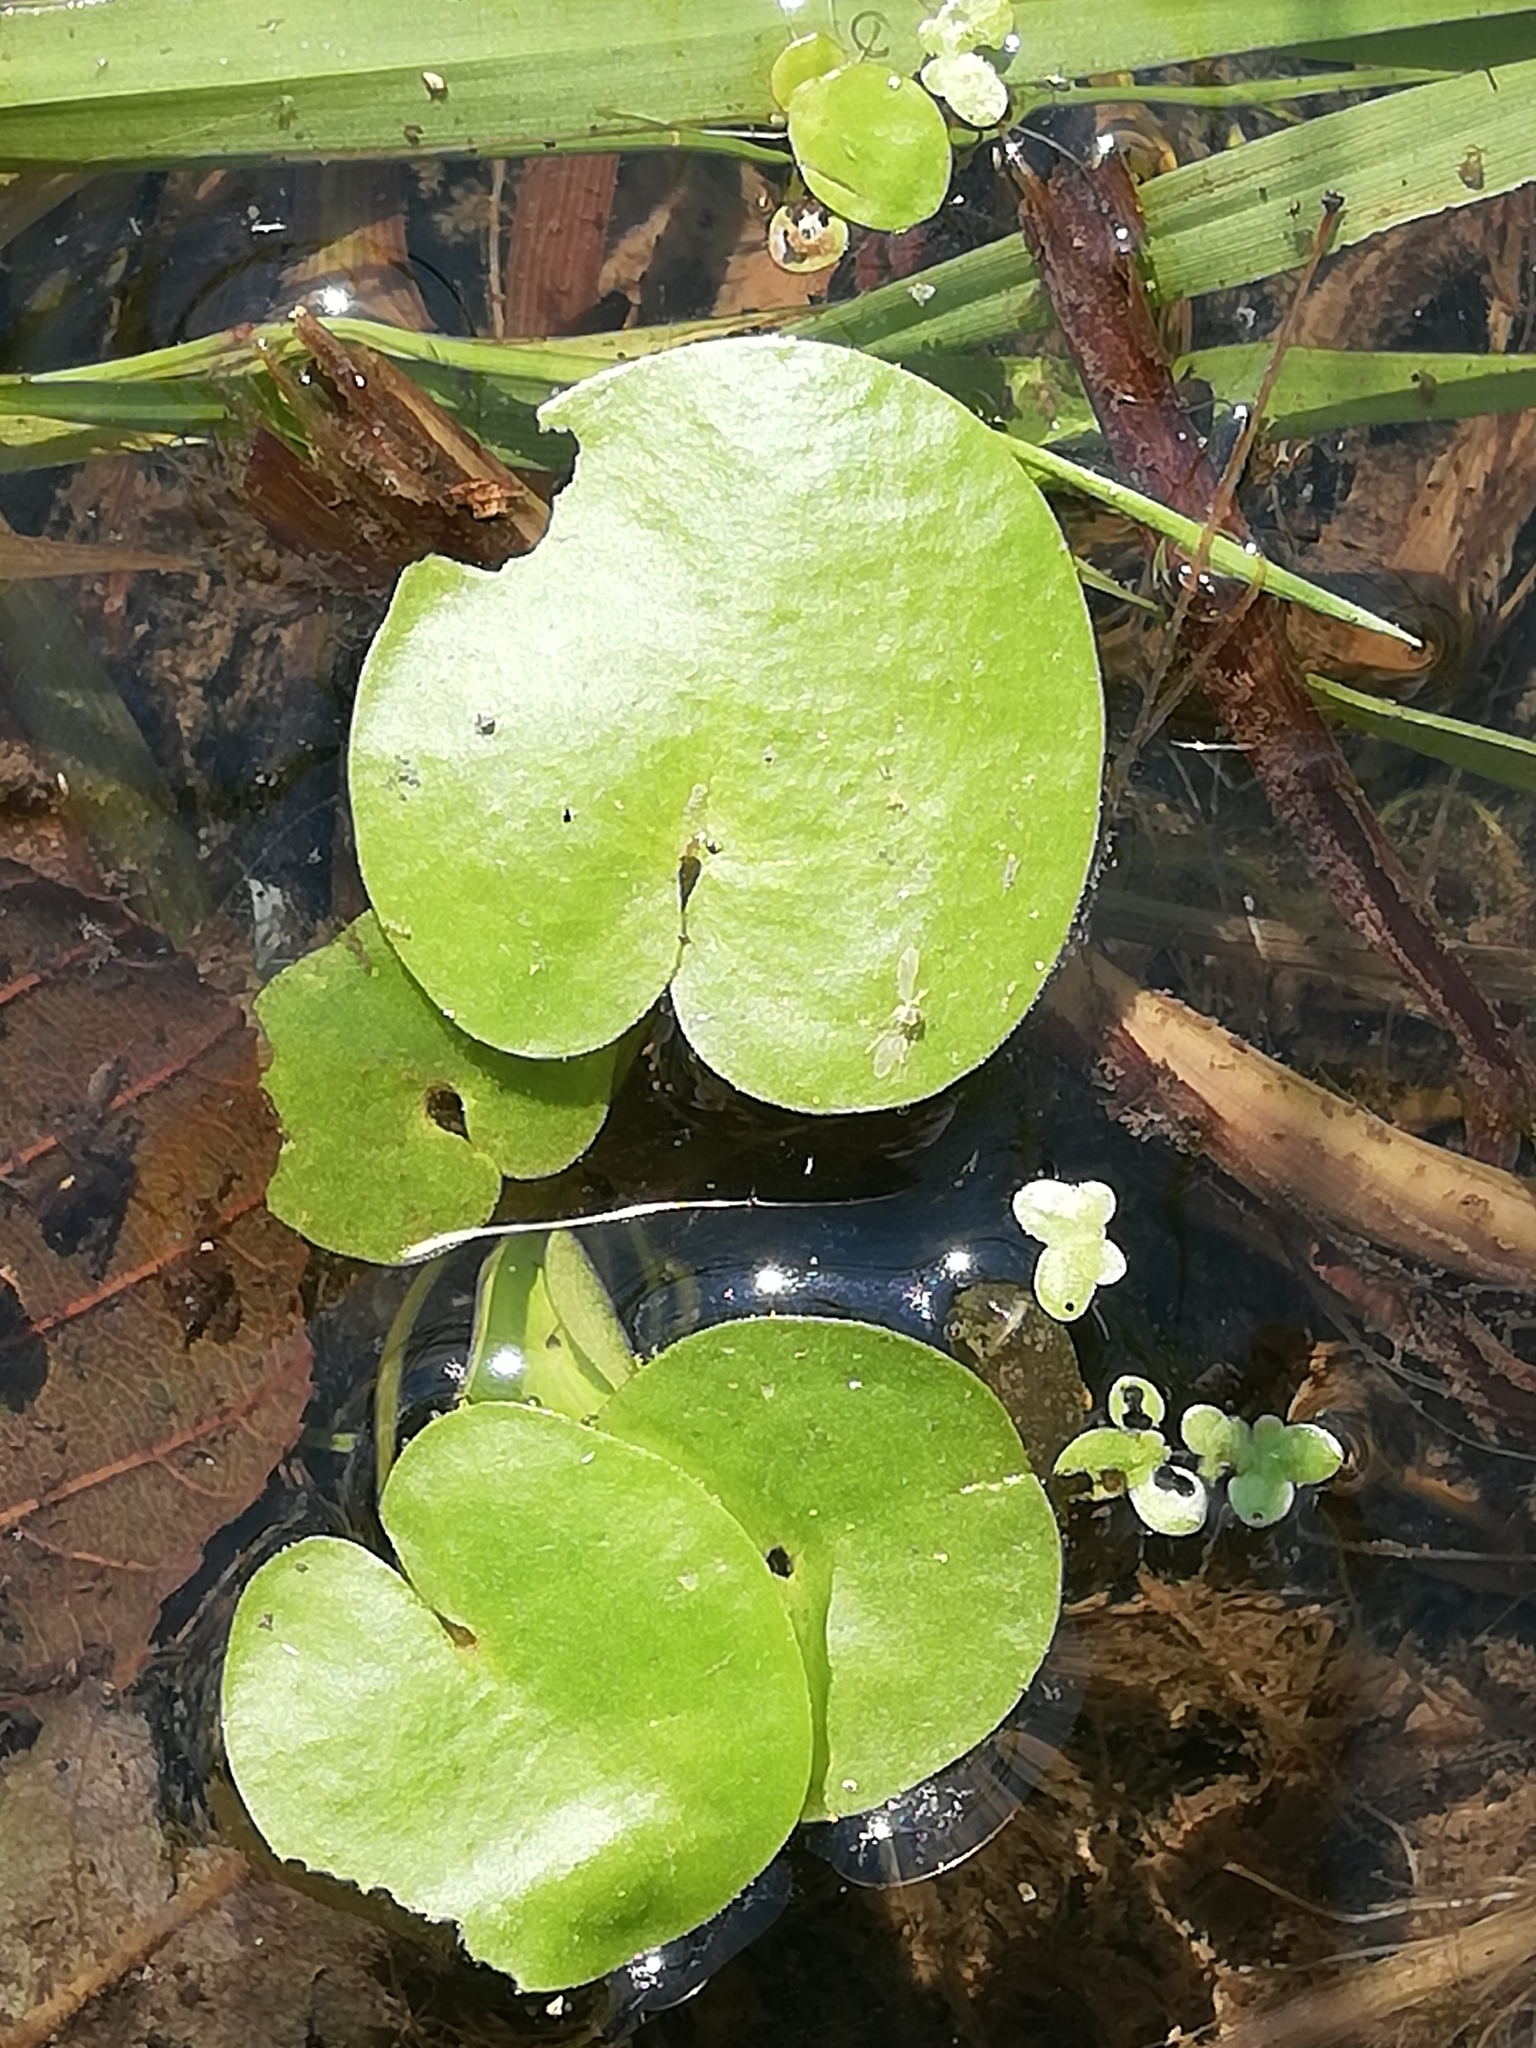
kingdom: Plantae
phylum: Tracheophyta
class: Liliopsida
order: Alismatales
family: Hydrocharitaceae
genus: Hydrocharis
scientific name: Hydrocharis morsus-ranae
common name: Frogbit
